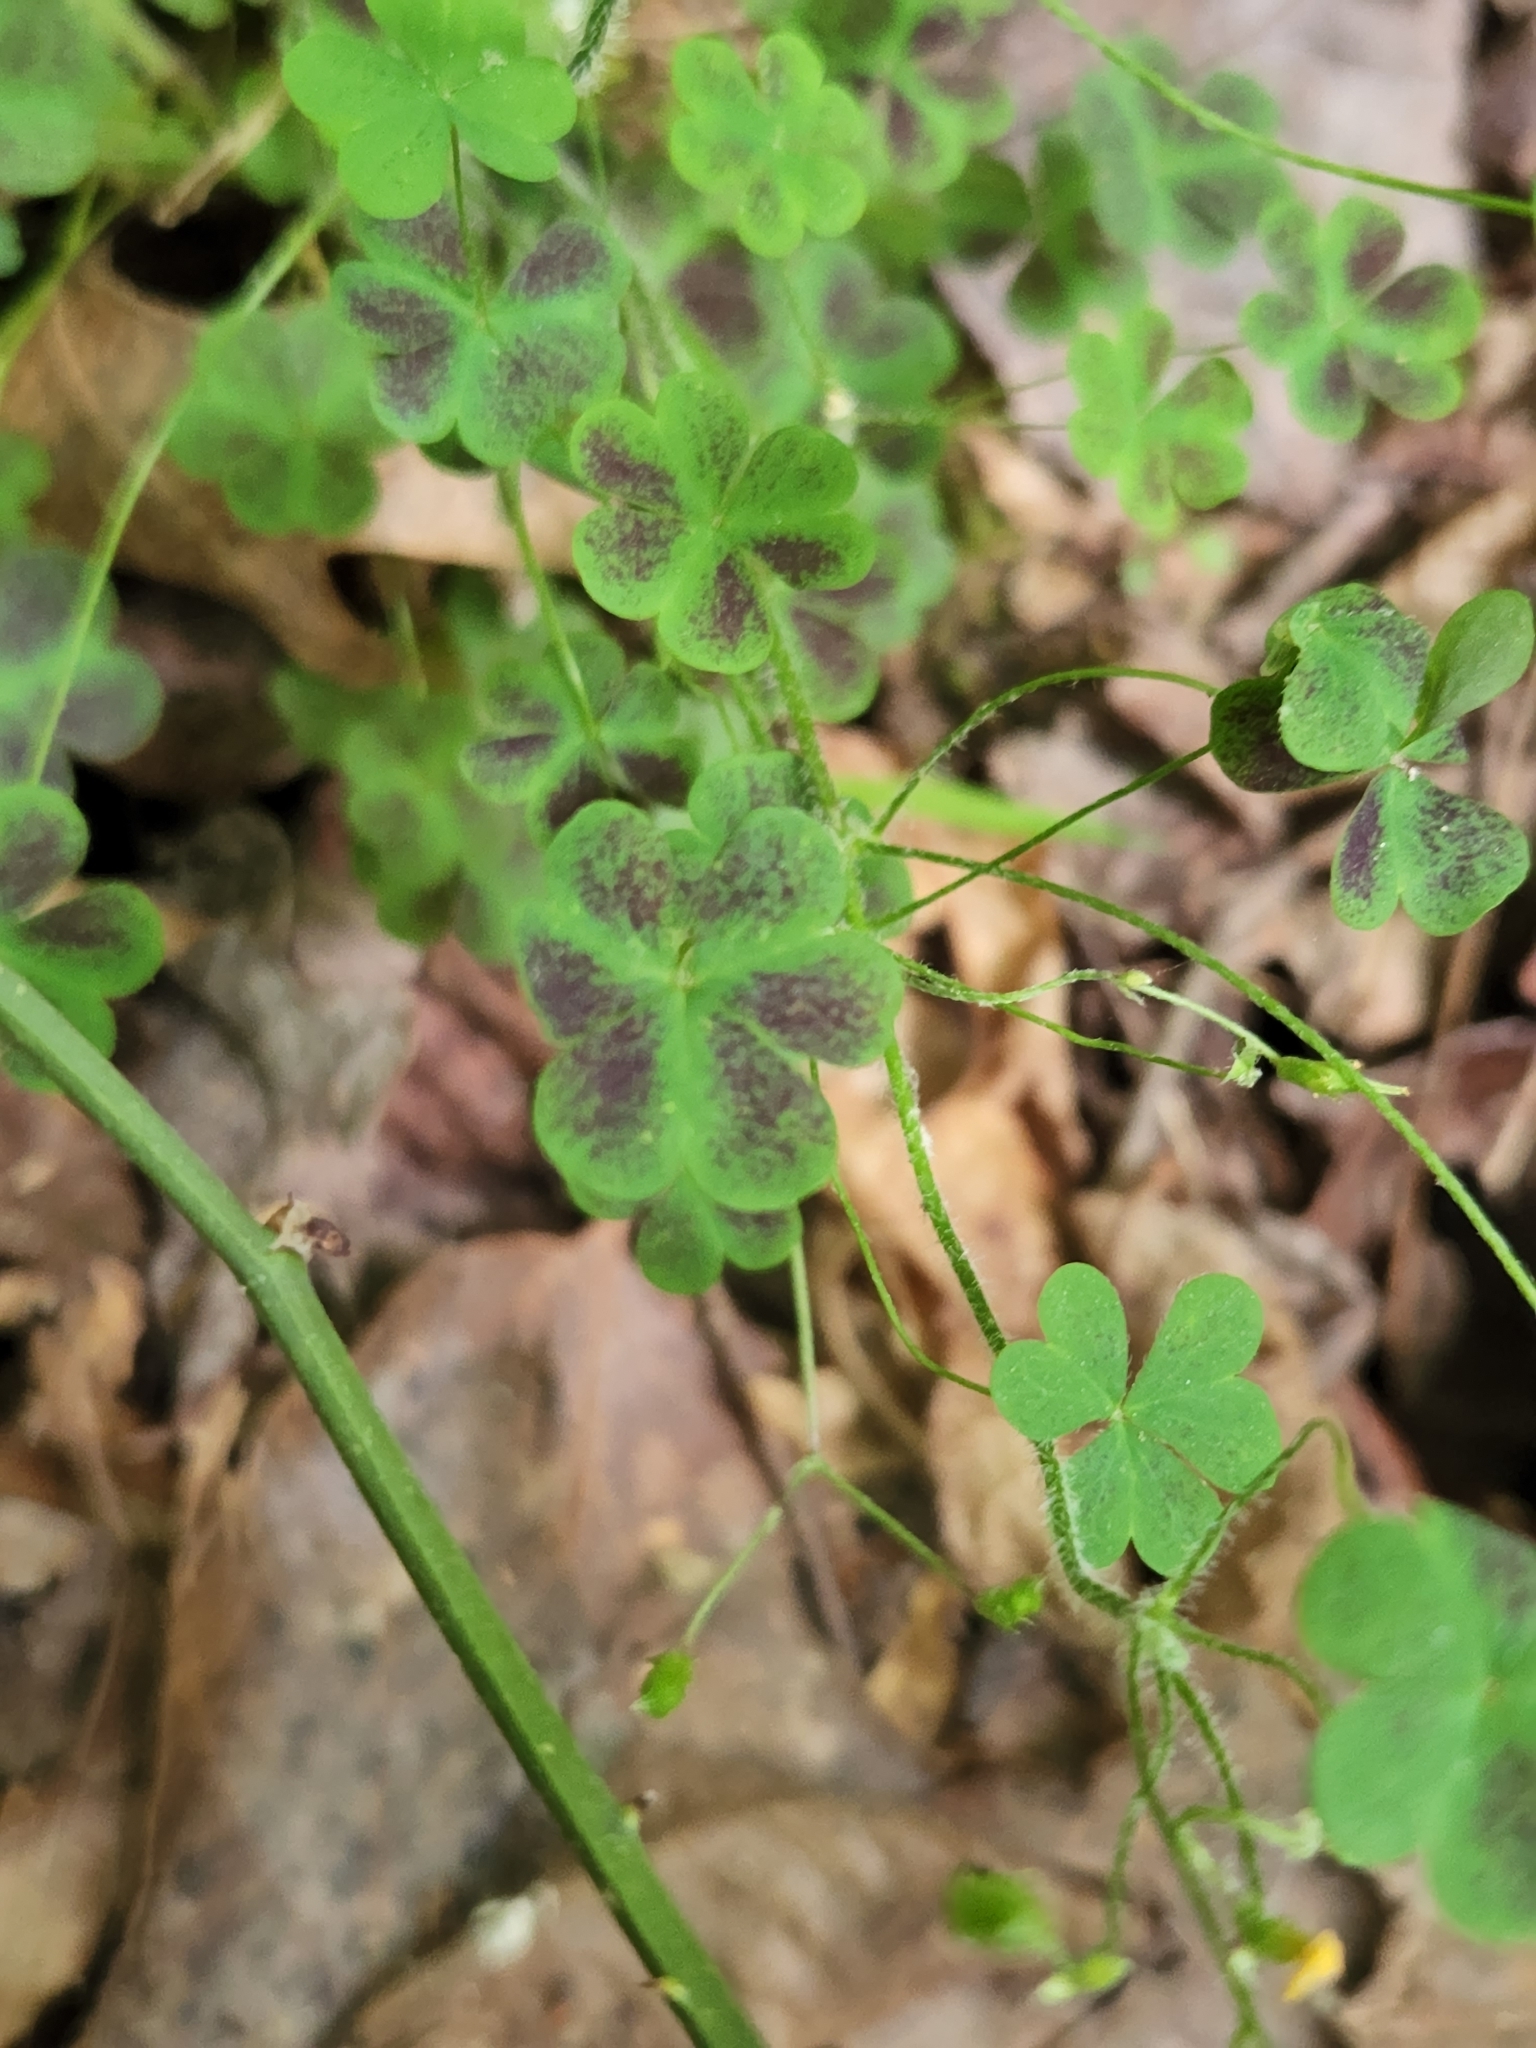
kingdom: Plantae
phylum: Tracheophyta
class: Magnoliopsida
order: Oxalidales
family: Oxalidaceae
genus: Oxalis
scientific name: Oxalis colorea
